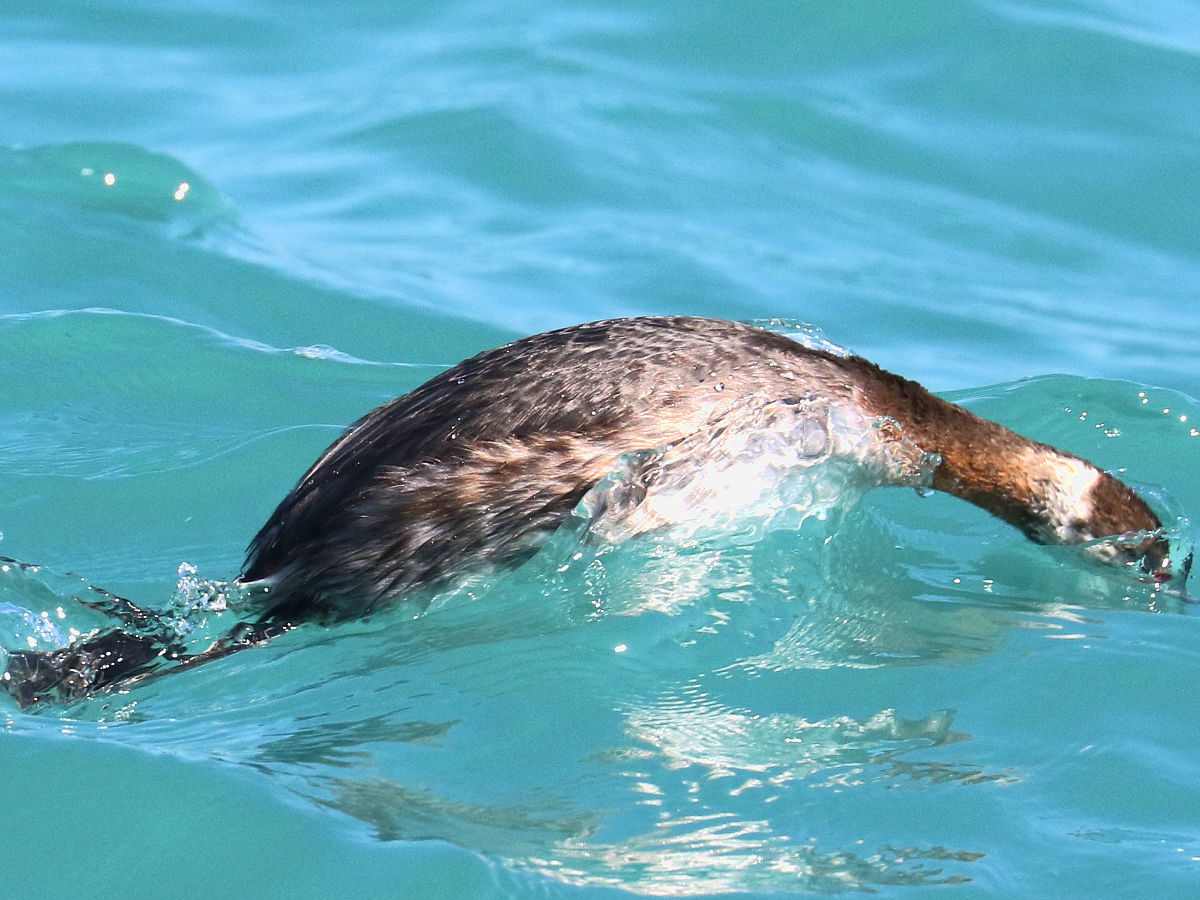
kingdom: Animalia
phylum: Chordata
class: Aves
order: Podicipediformes
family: Podicipedidae
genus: Podiceps
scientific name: Podiceps auritus
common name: Horned grebe
